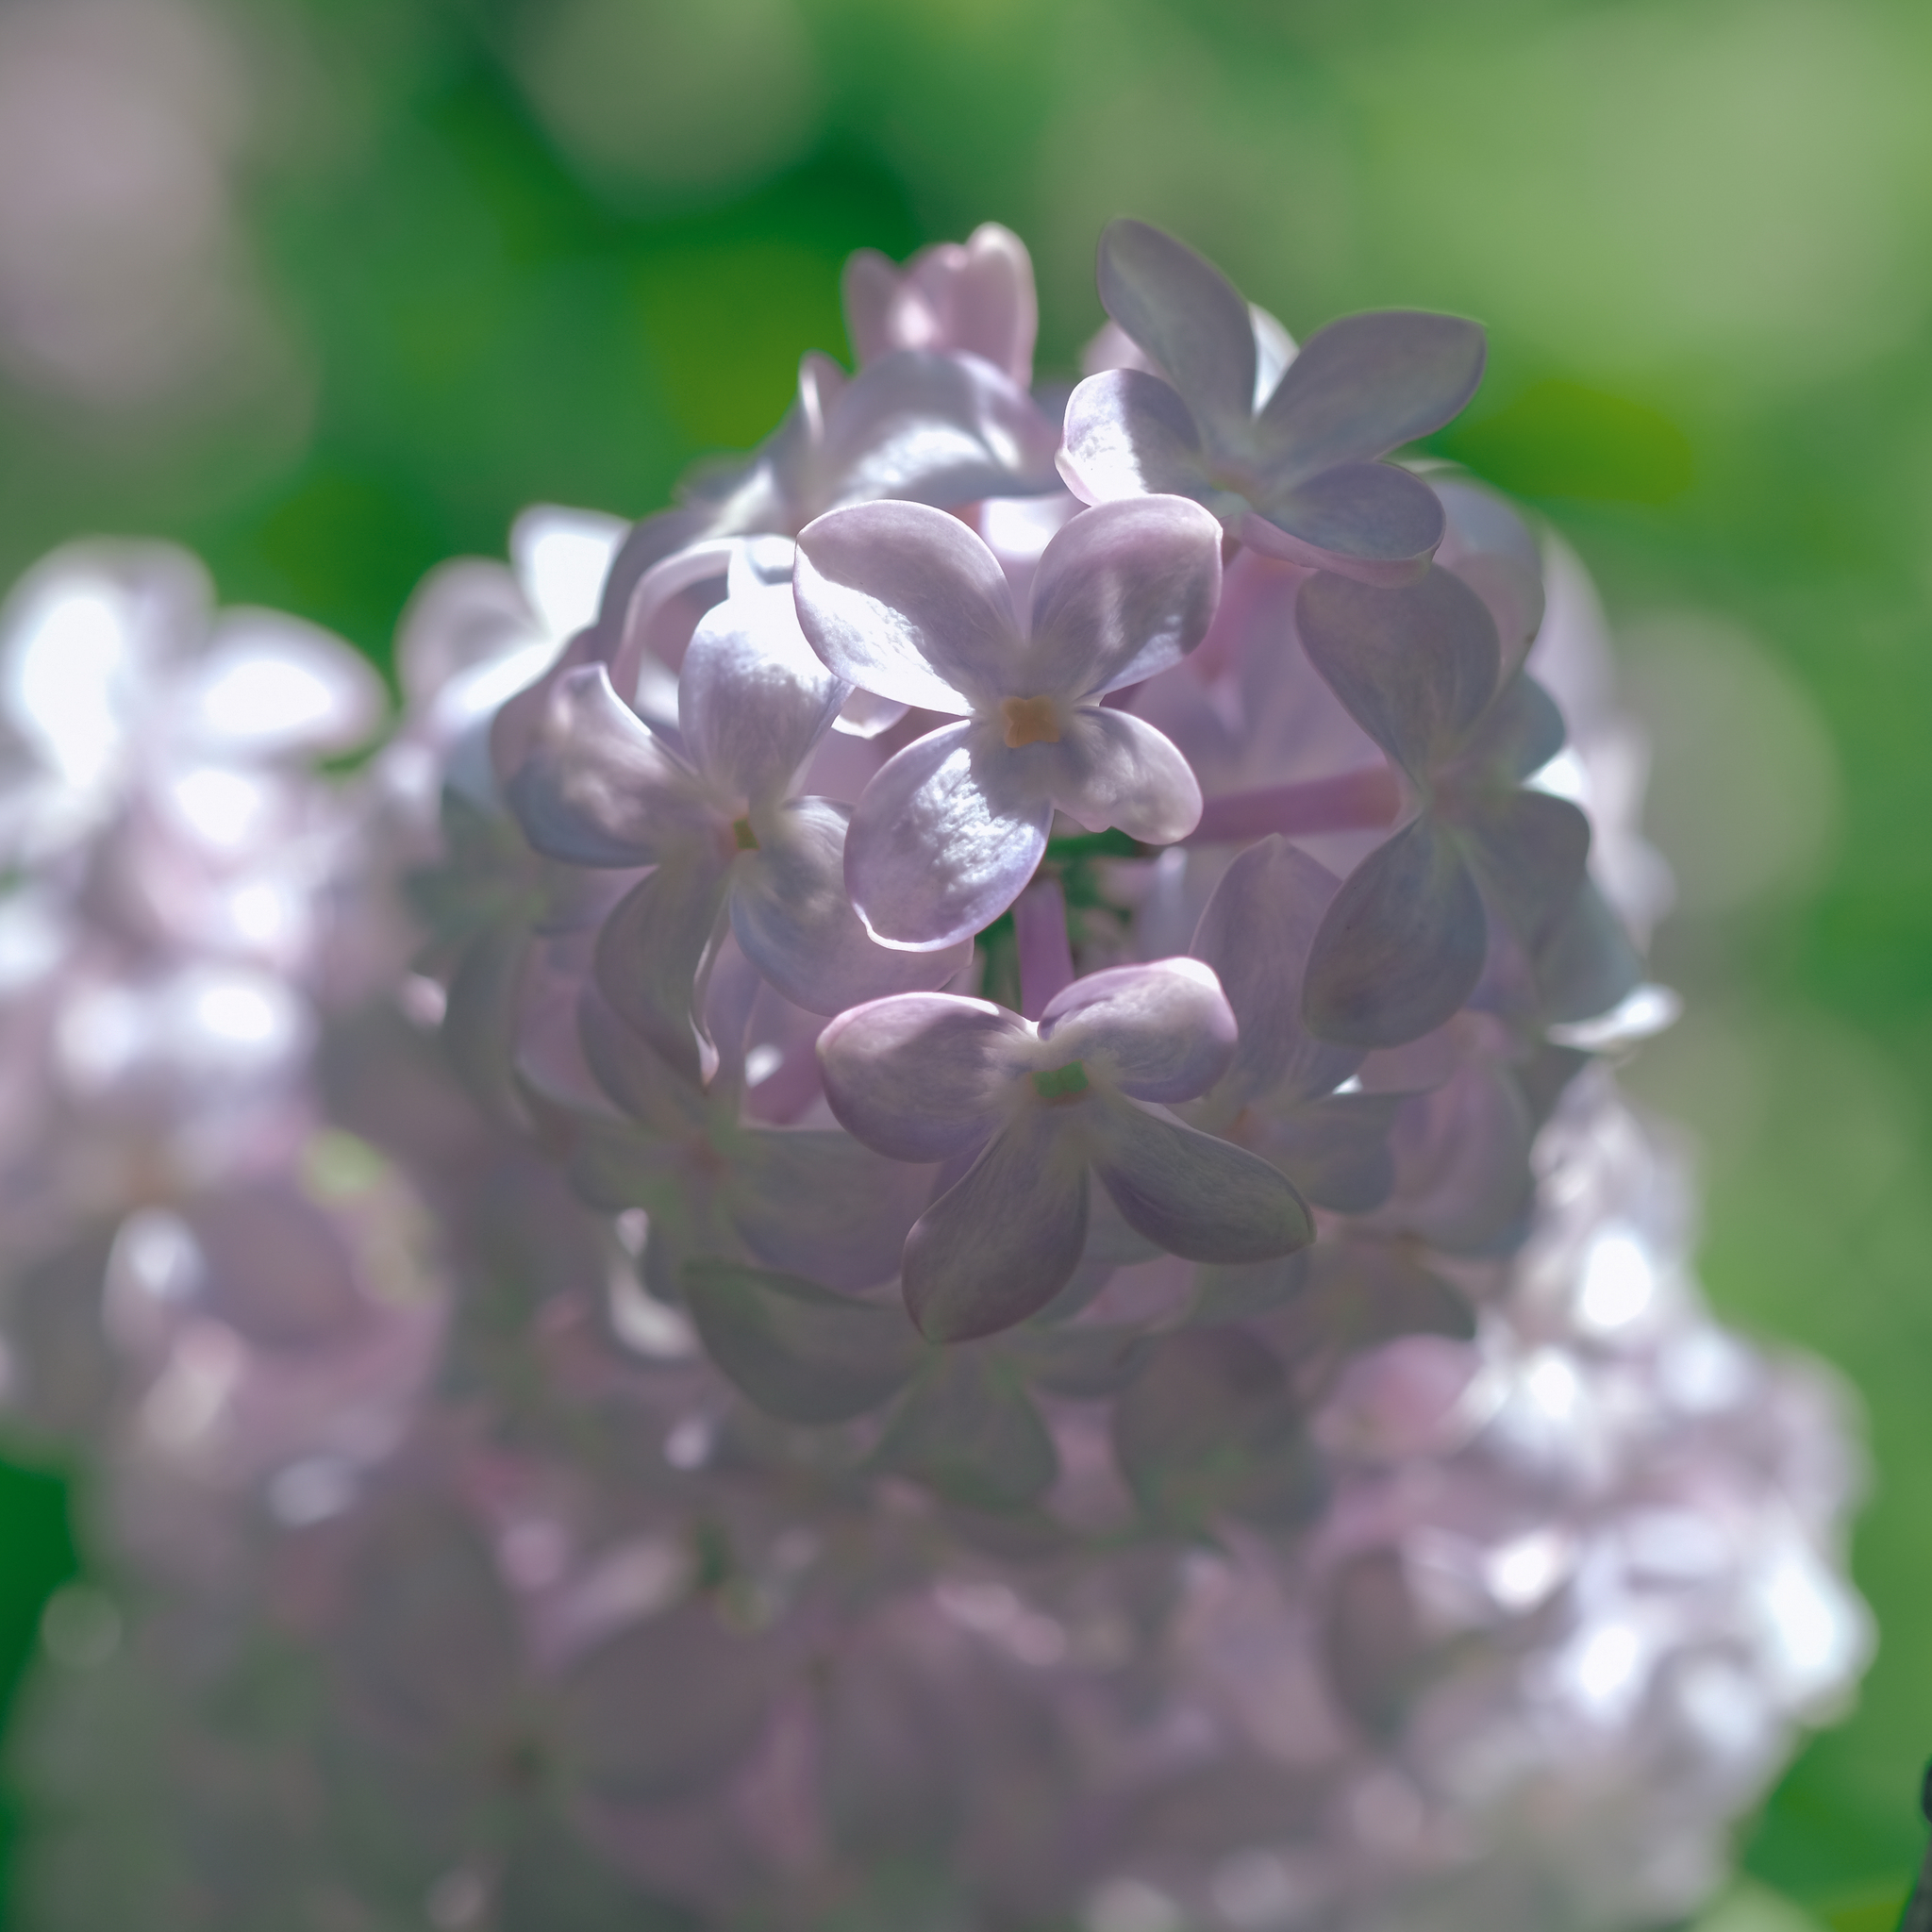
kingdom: Plantae
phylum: Tracheophyta
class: Magnoliopsida
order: Lamiales
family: Oleaceae
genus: Syringa
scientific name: Syringa vulgaris
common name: Common lilac
